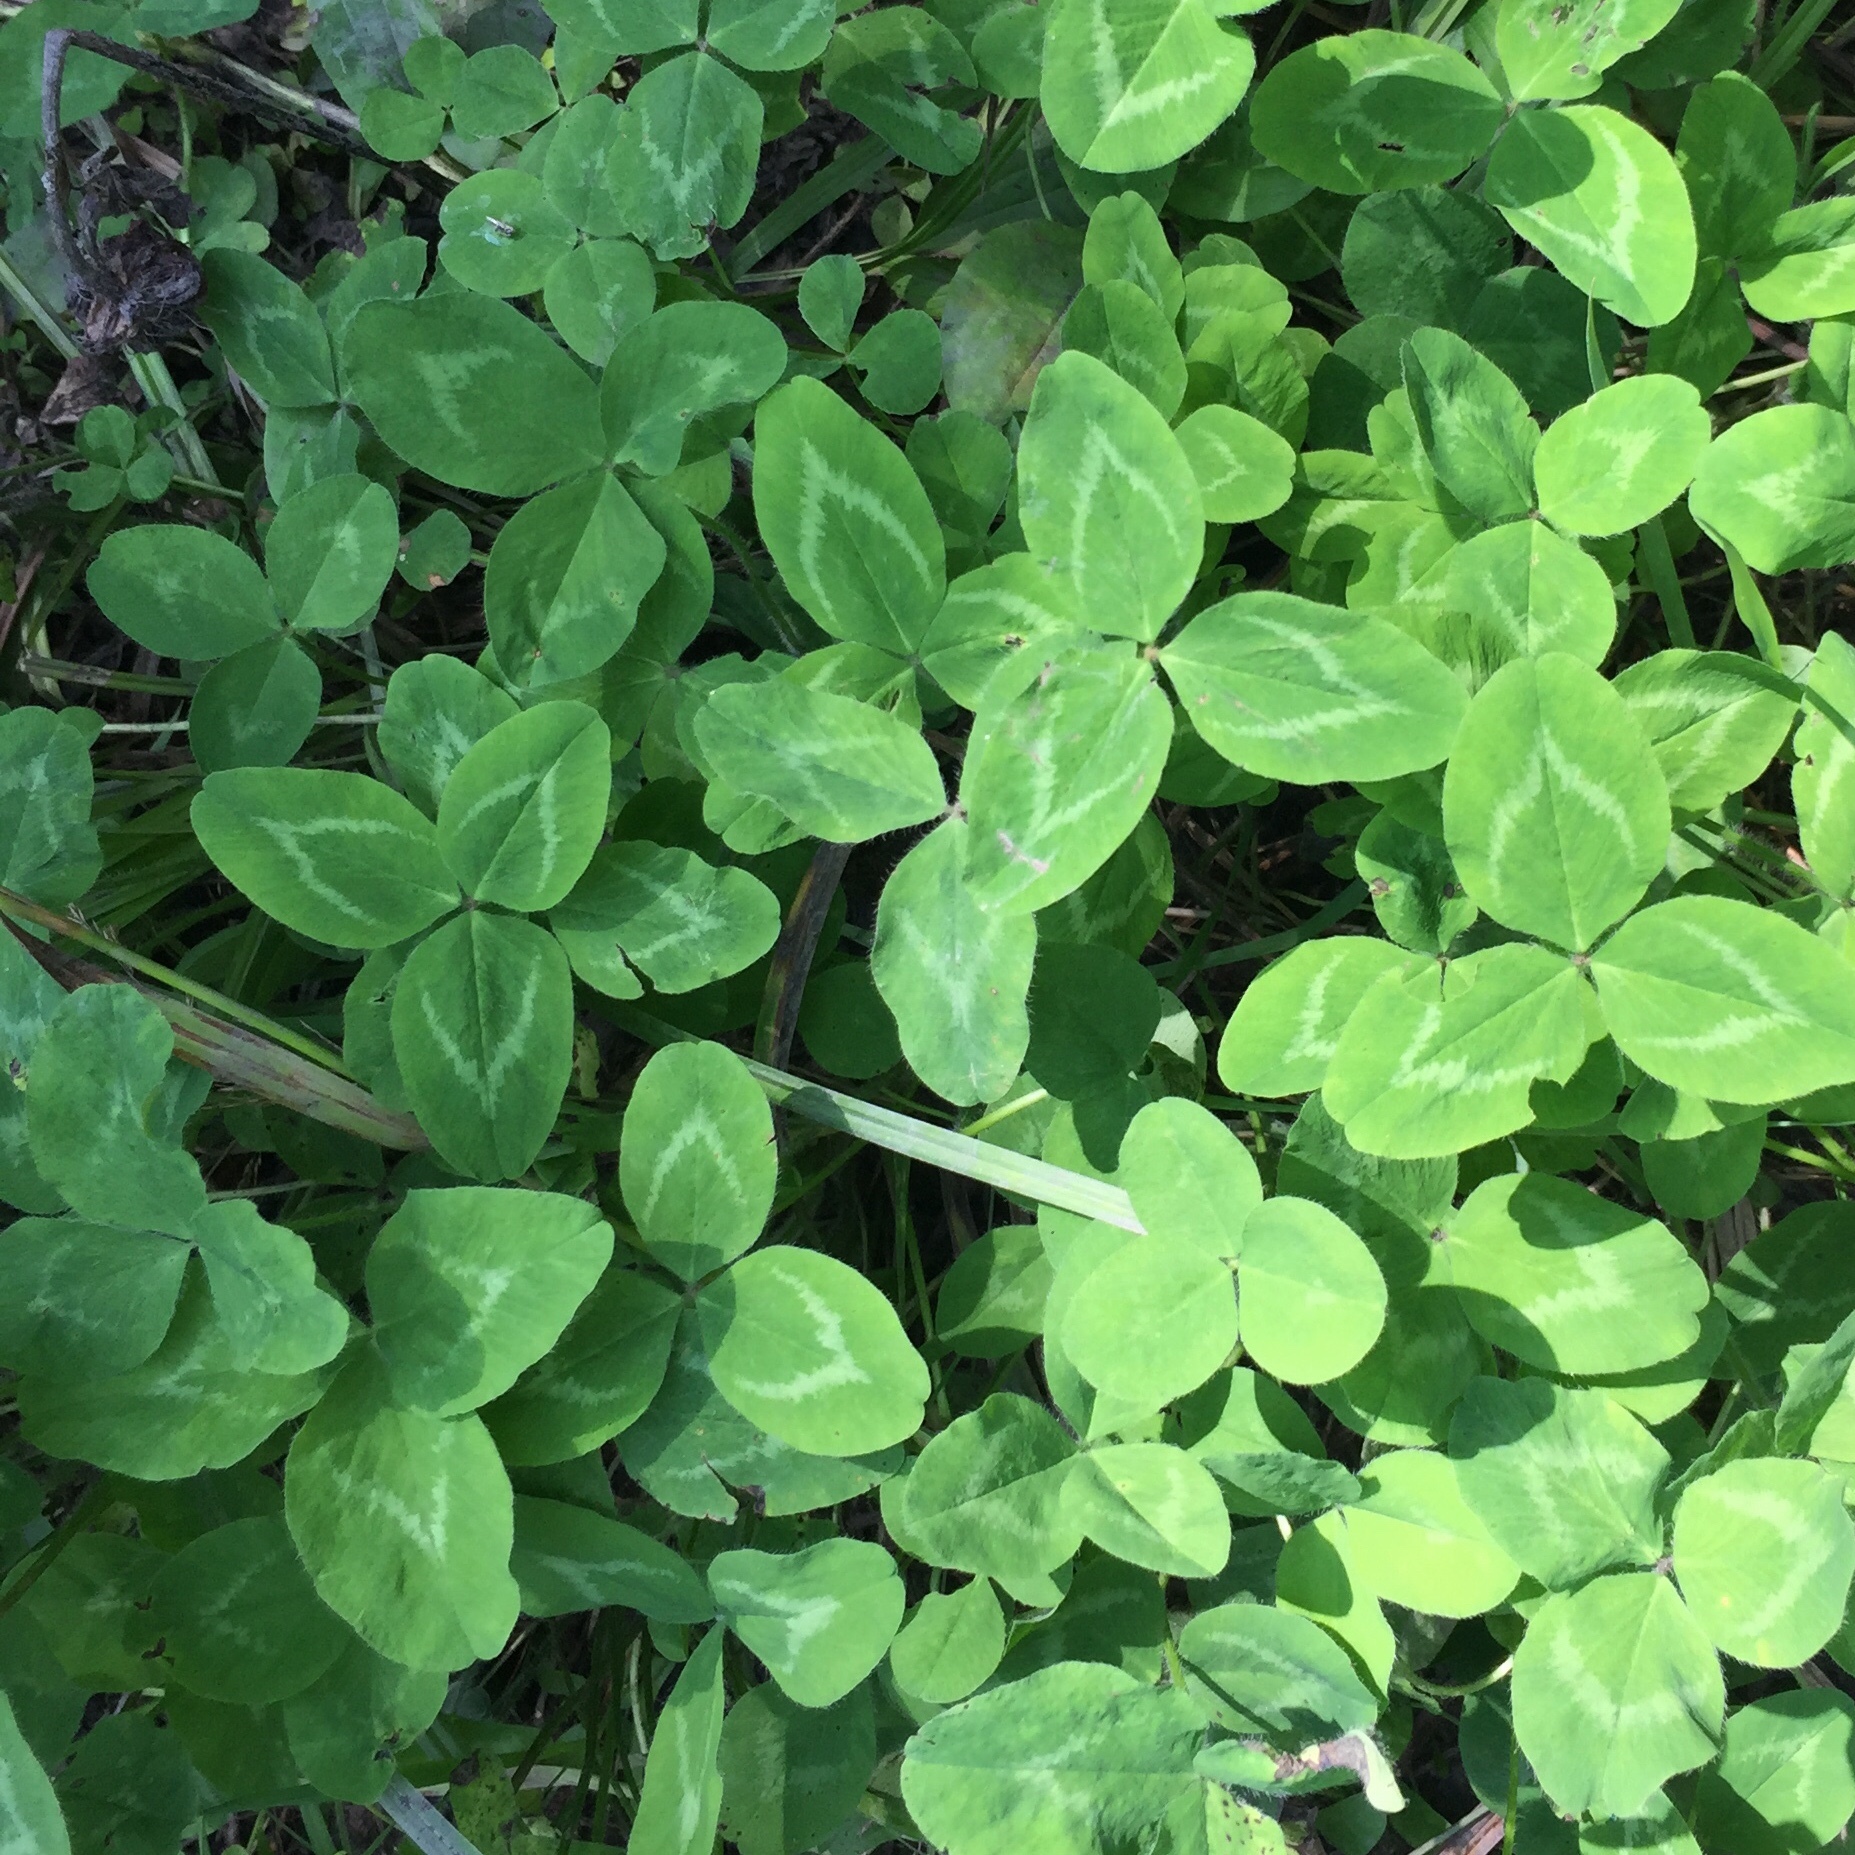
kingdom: Plantae
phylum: Tracheophyta
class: Magnoliopsida
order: Fabales
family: Fabaceae
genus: Trifolium
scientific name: Trifolium pratense
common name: Red clover
